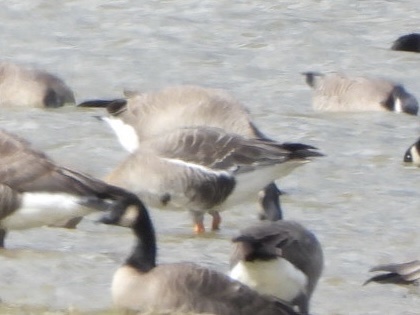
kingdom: Animalia
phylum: Chordata
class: Aves
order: Anseriformes
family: Anatidae
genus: Anser
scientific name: Anser albifrons
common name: Greater white-fronted goose
